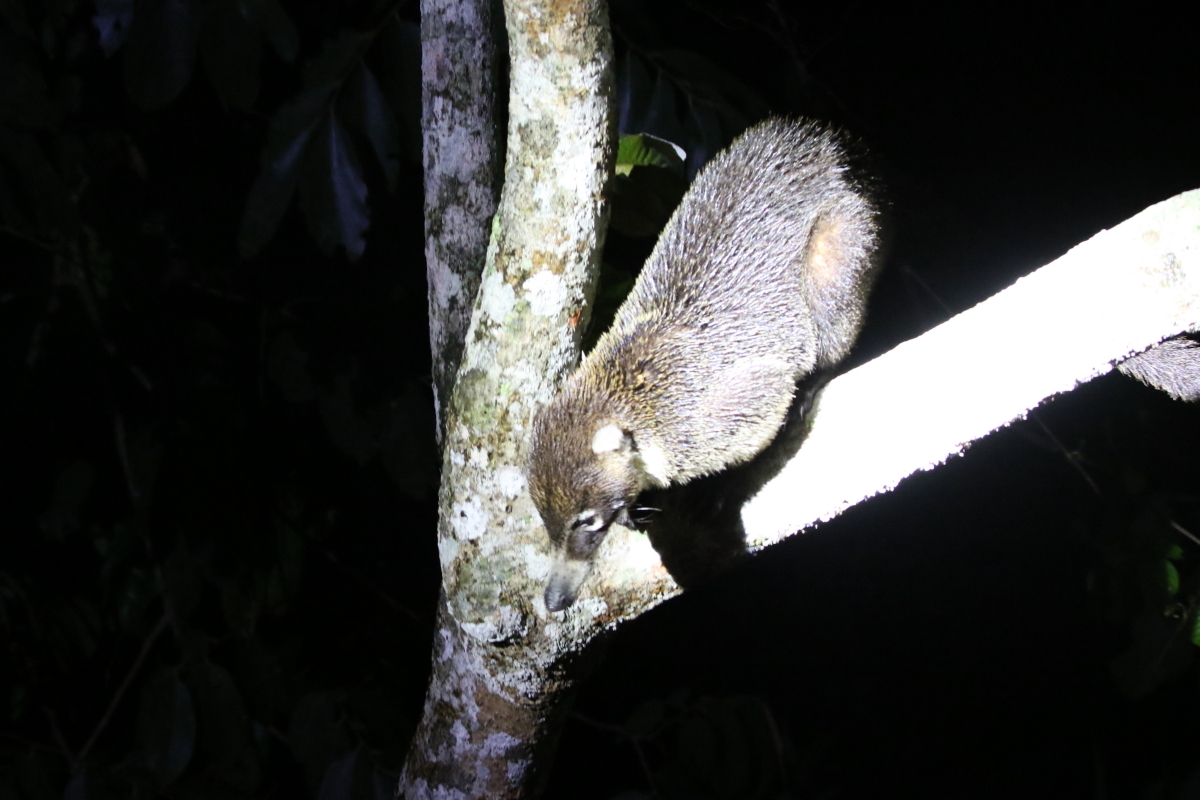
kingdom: Animalia
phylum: Chordata
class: Mammalia
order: Carnivora
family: Procyonidae
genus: Nasua
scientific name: Nasua narica
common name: White-nosed coati
